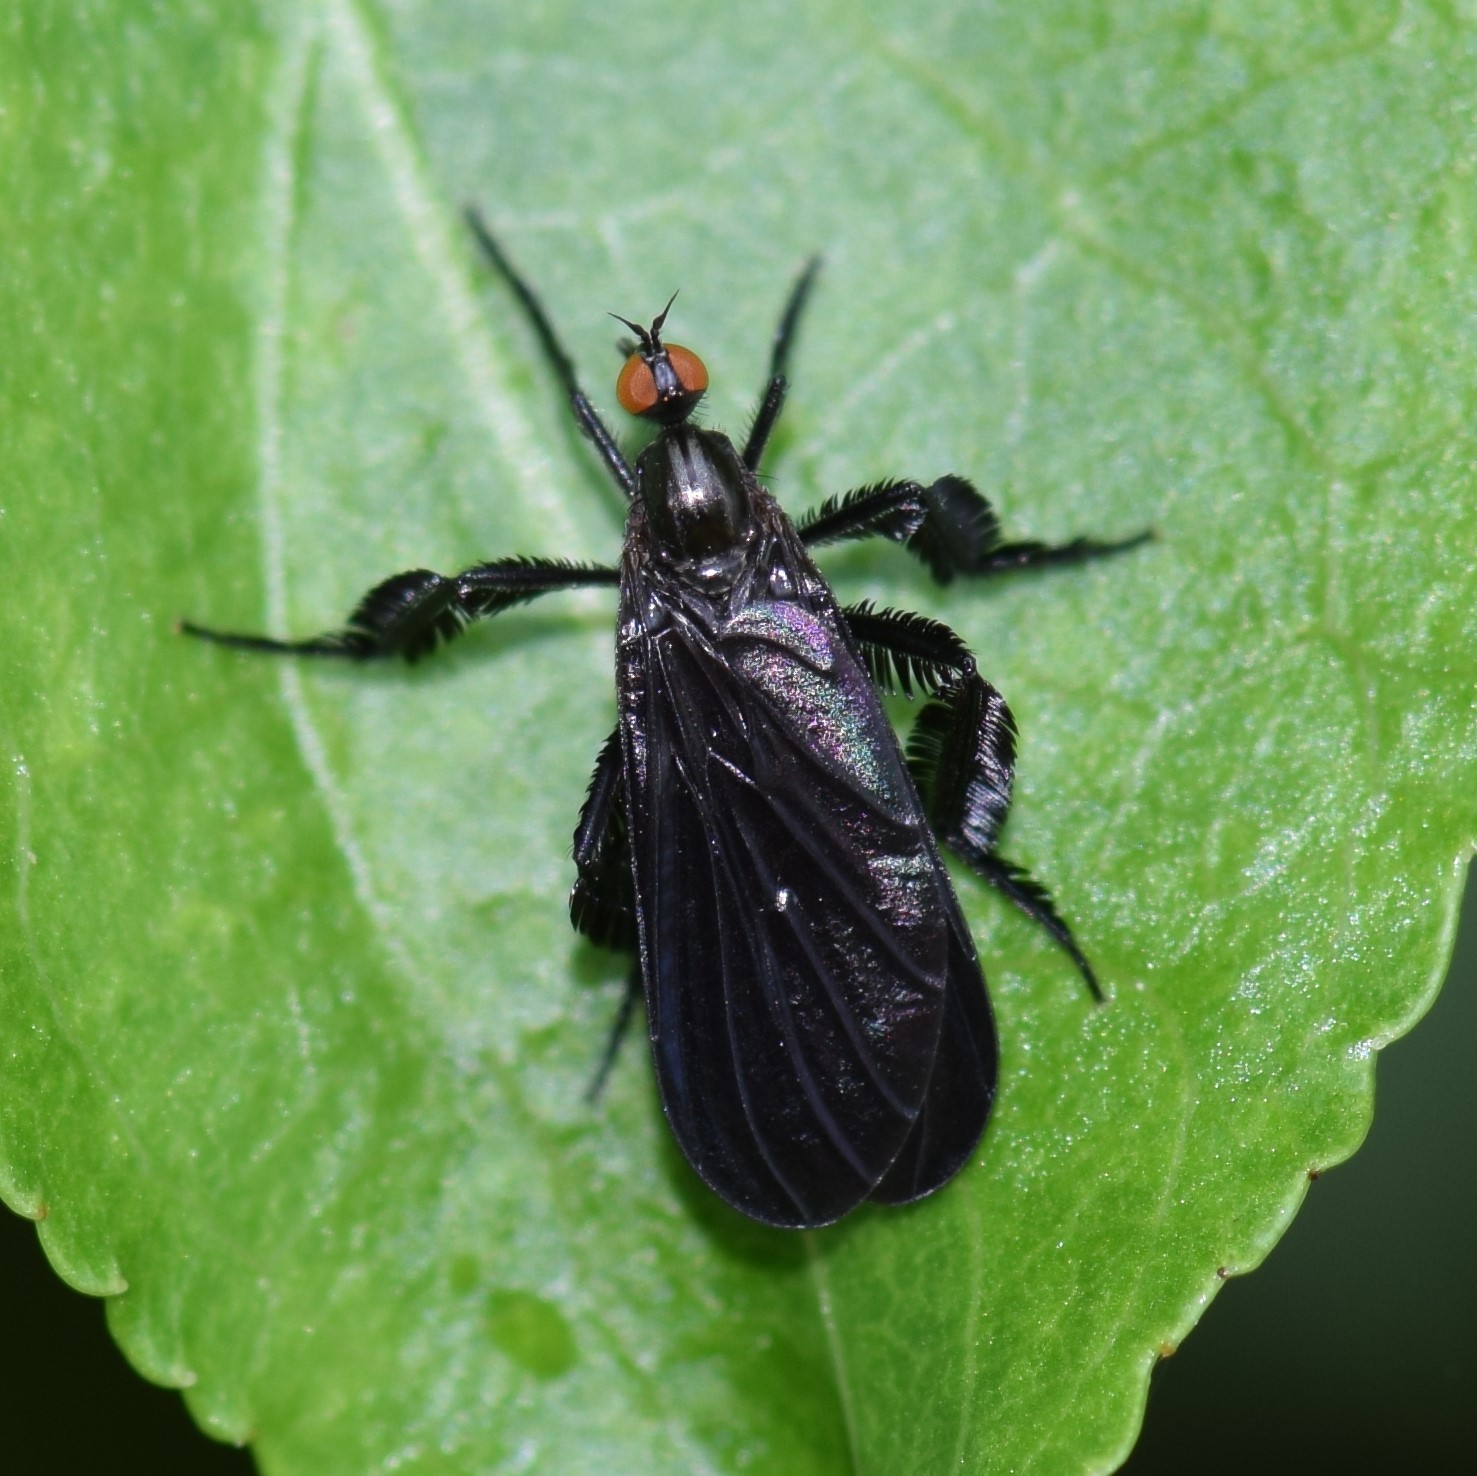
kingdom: Animalia
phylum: Arthropoda
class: Insecta
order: Diptera
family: Empididae
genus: Rhamphomyia
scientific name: Rhamphomyia longicauda
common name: Long-tailed dance fly
